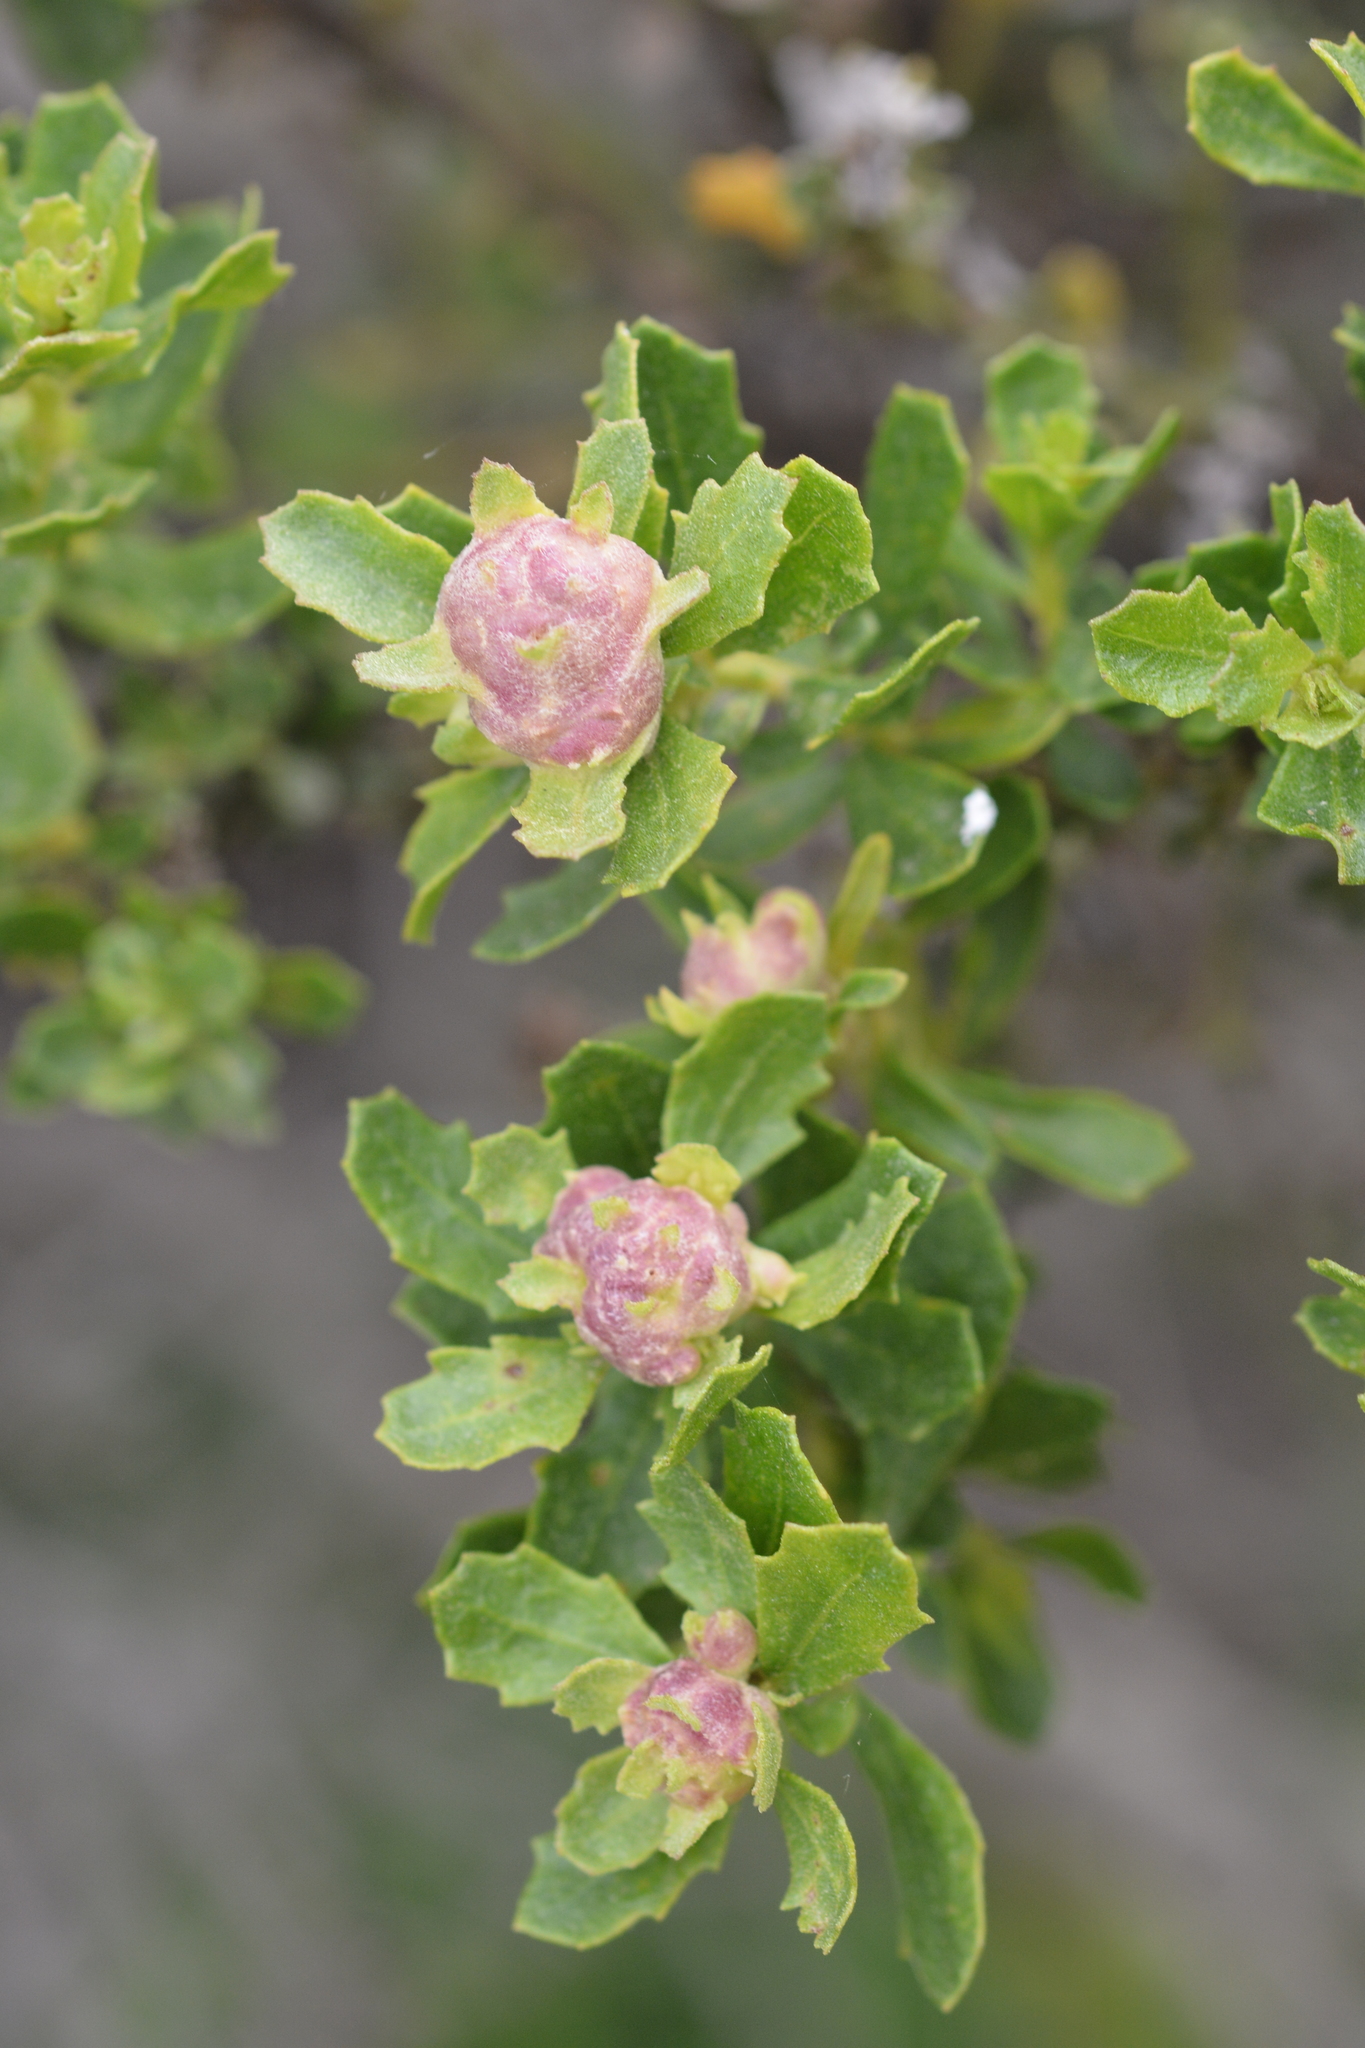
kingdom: Animalia
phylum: Arthropoda
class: Insecta
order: Diptera
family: Cecidomyiidae
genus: Rhopalomyia
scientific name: Rhopalomyia californica
